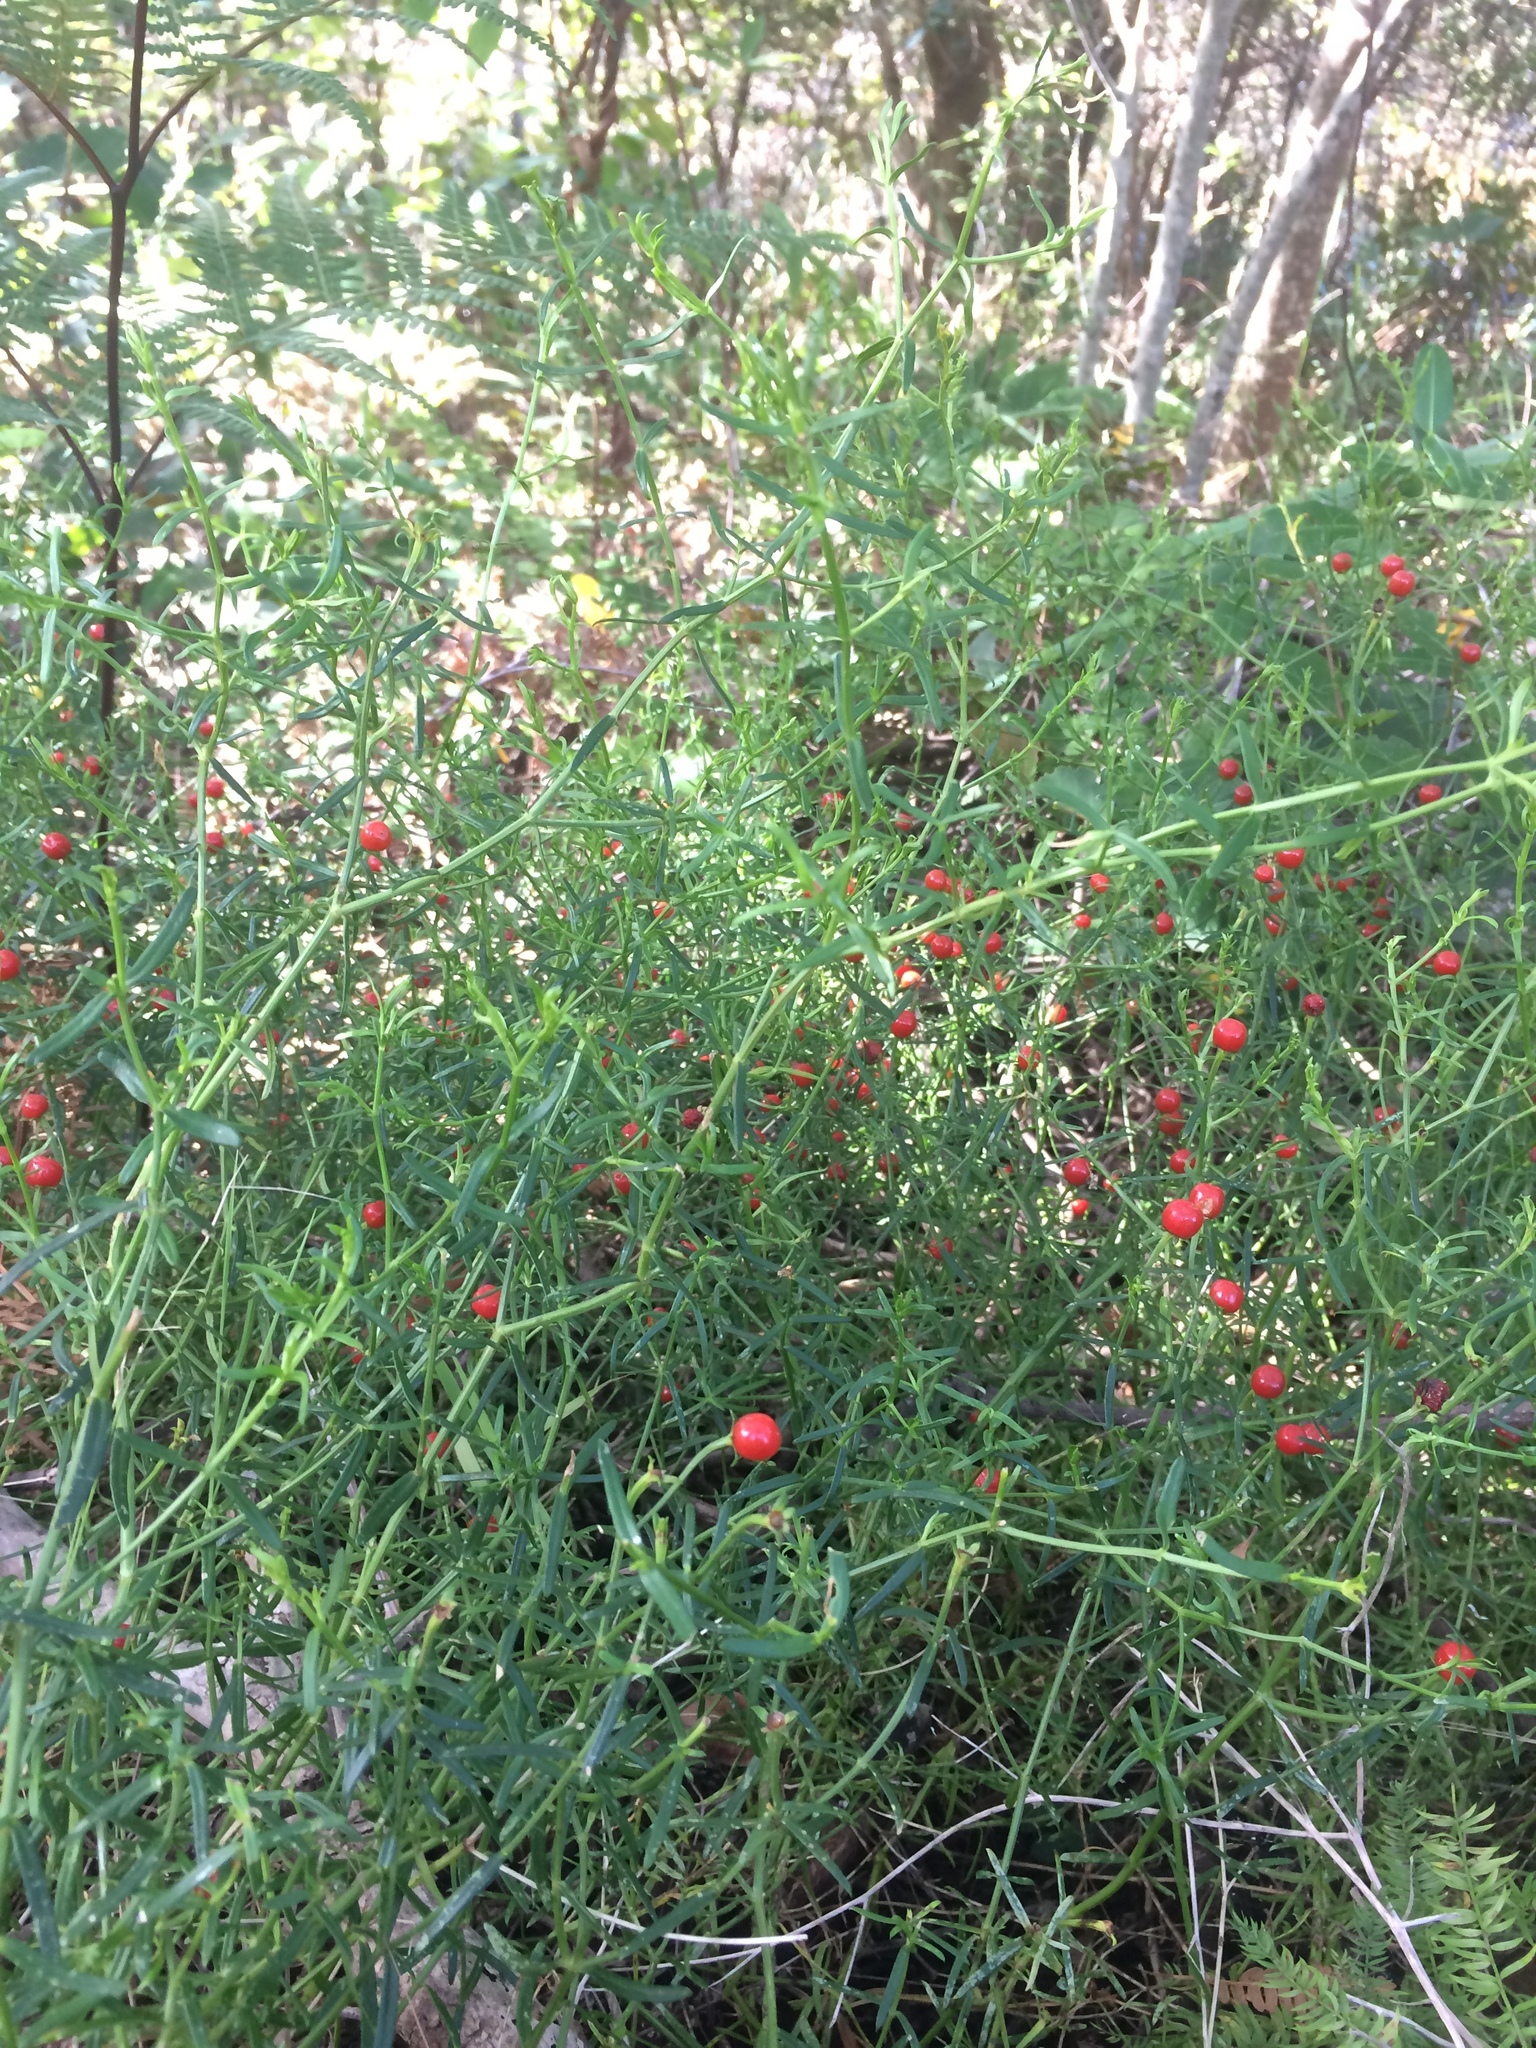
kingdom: Plantae
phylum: Tracheophyta
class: Magnoliopsida
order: Gentianales
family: Gentianaceae
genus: Chironia
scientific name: Chironia baccifera
